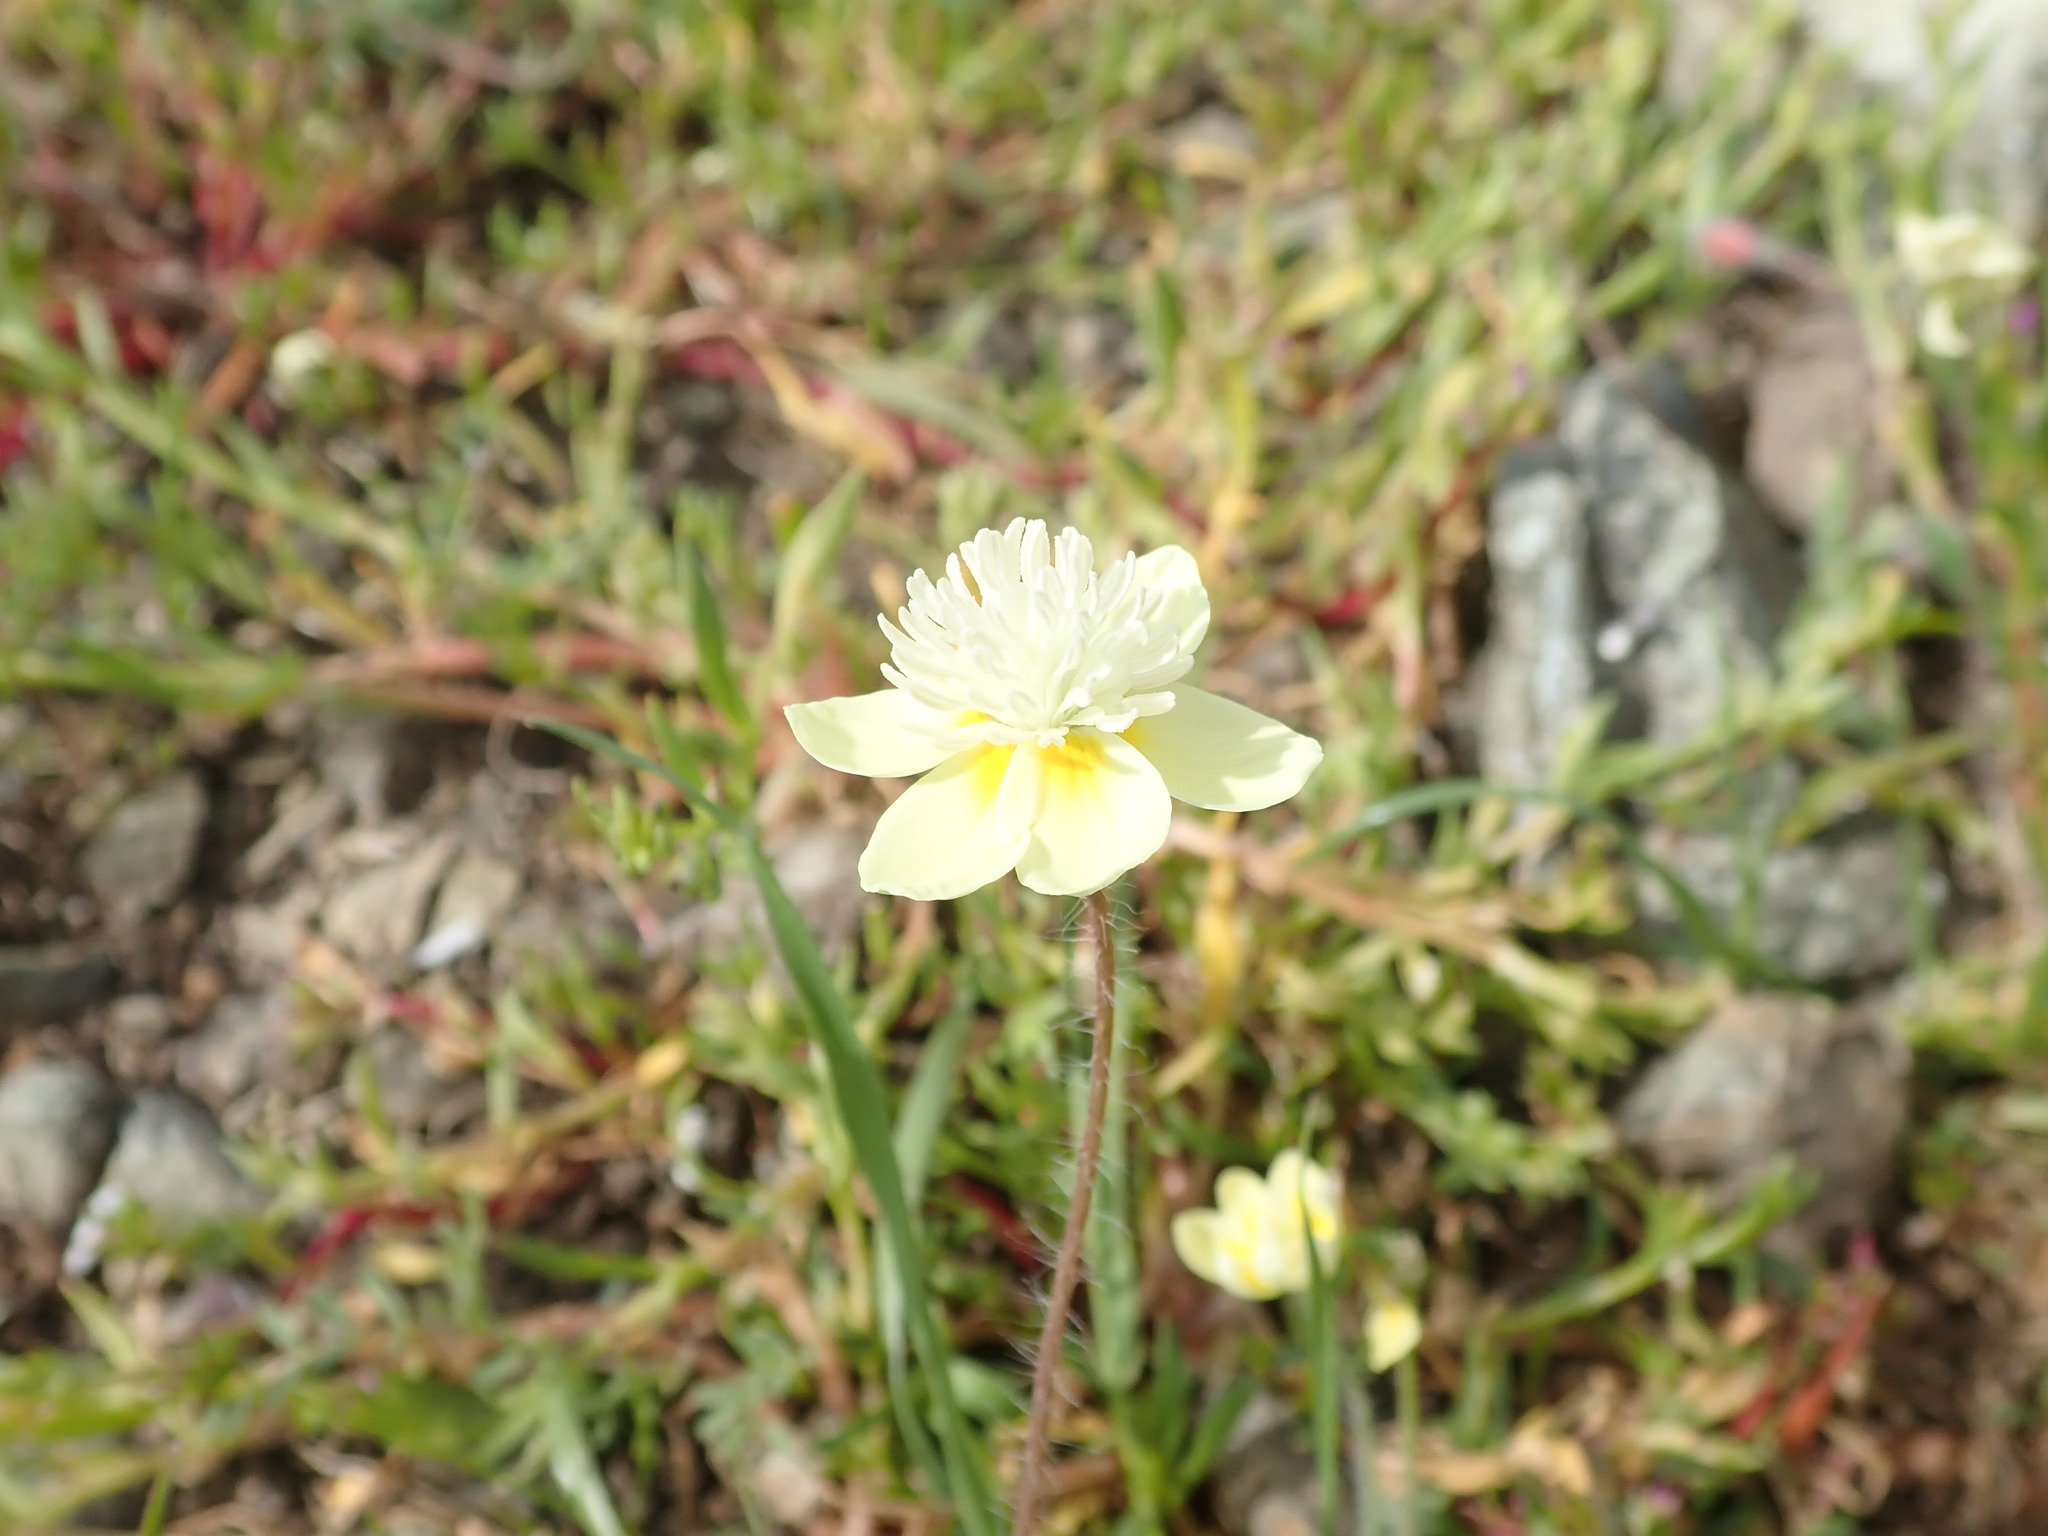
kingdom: Plantae
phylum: Tracheophyta
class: Magnoliopsida
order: Ranunculales
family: Papaveraceae
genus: Platystemon
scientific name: Platystemon californicus
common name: Cream-cups
